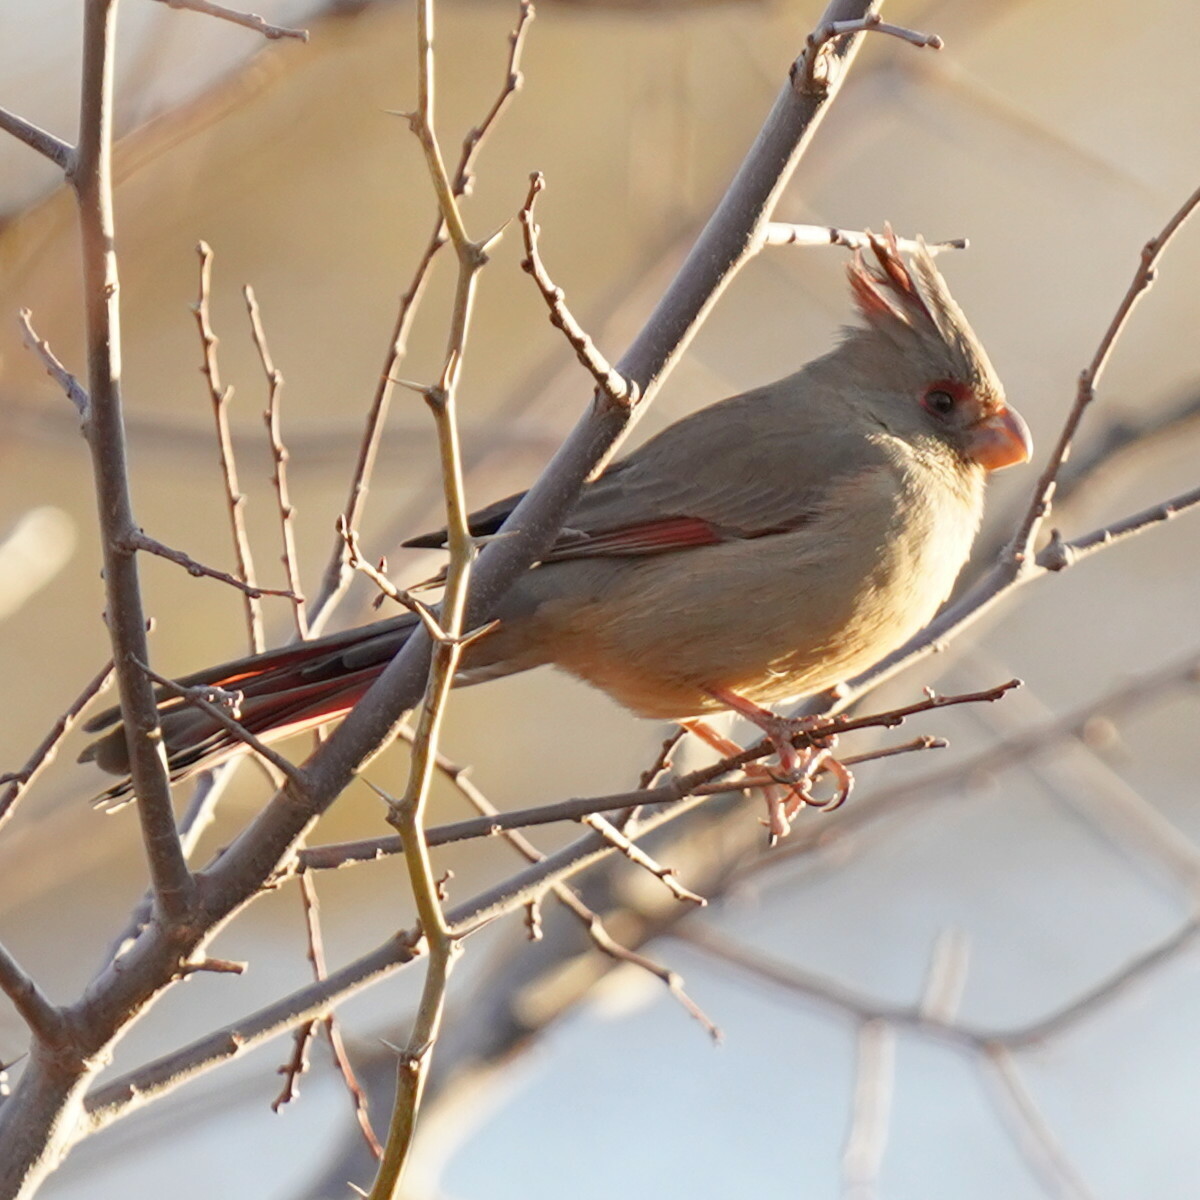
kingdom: Animalia
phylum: Chordata
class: Aves
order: Passeriformes
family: Cardinalidae
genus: Cardinalis
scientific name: Cardinalis sinuatus
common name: Pyrrhuloxia
